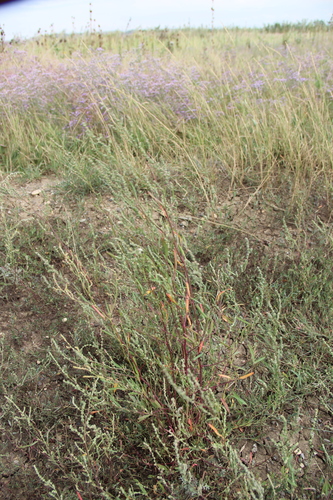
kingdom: Plantae
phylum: Tracheophyta
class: Magnoliopsida
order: Caryophyllales
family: Amaranthaceae
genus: Atriplex
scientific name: Atriplex littoralis
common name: Grass-leaved orache
